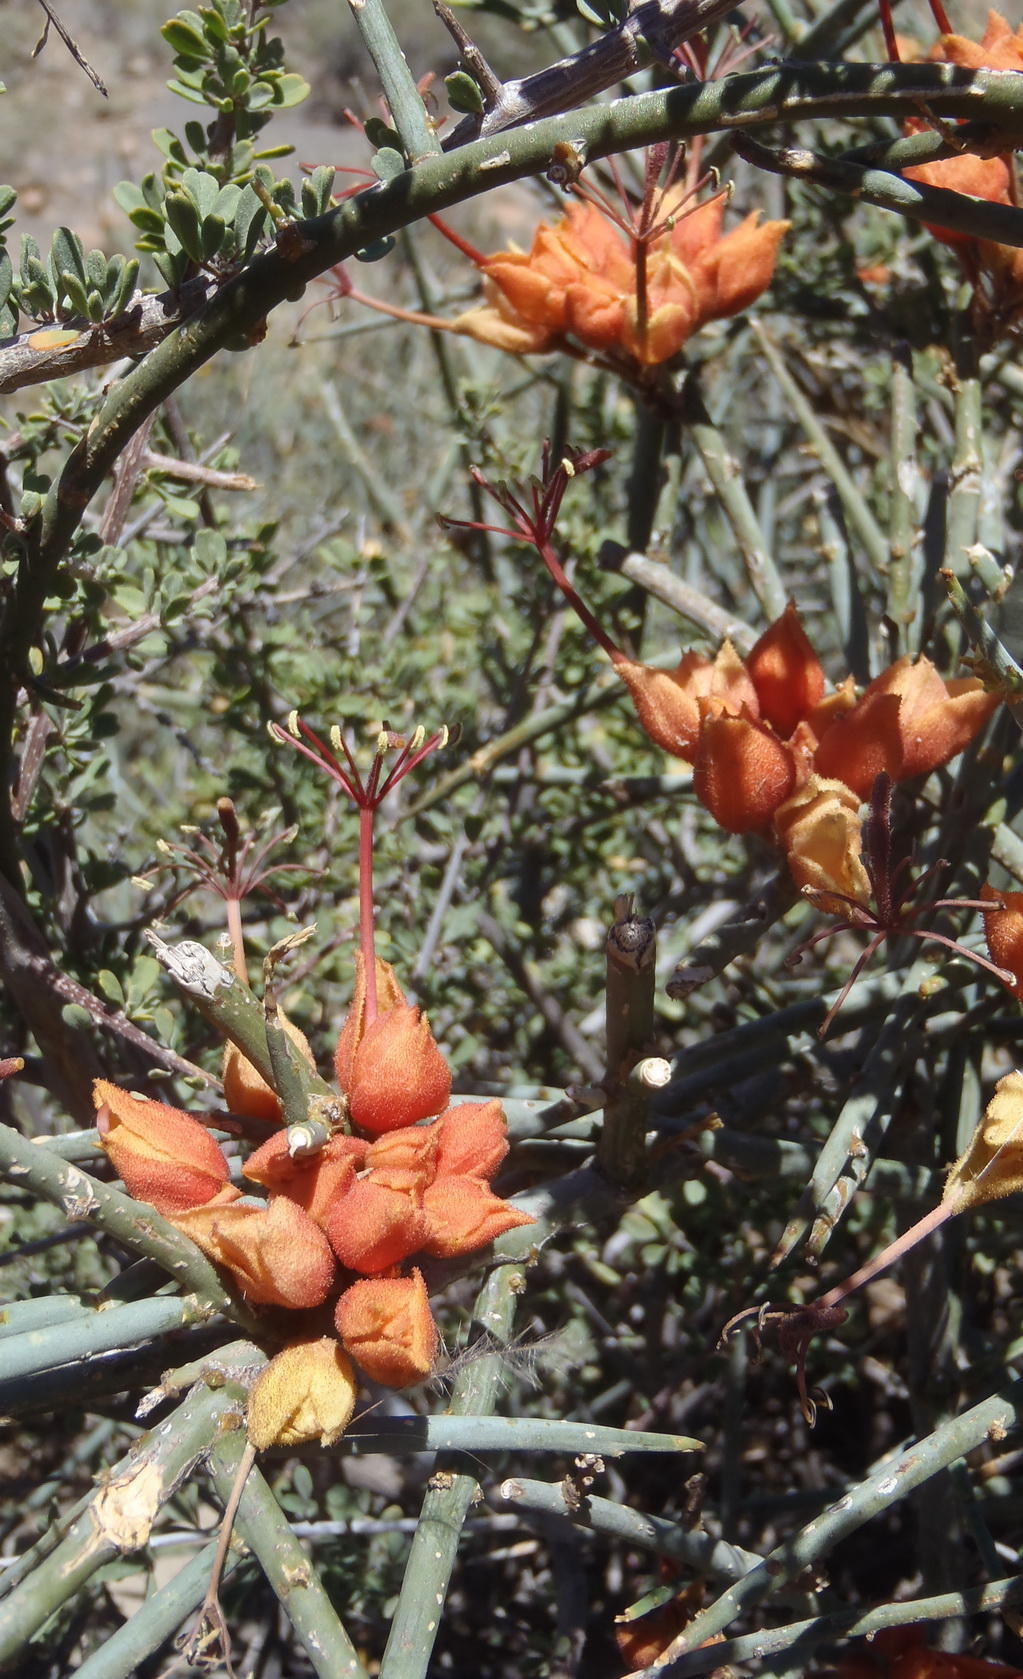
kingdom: Plantae
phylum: Tracheophyta
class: Magnoliopsida
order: Brassicales
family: Capparaceae
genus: Cadaba
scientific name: Cadaba aphylla
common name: Black storm
